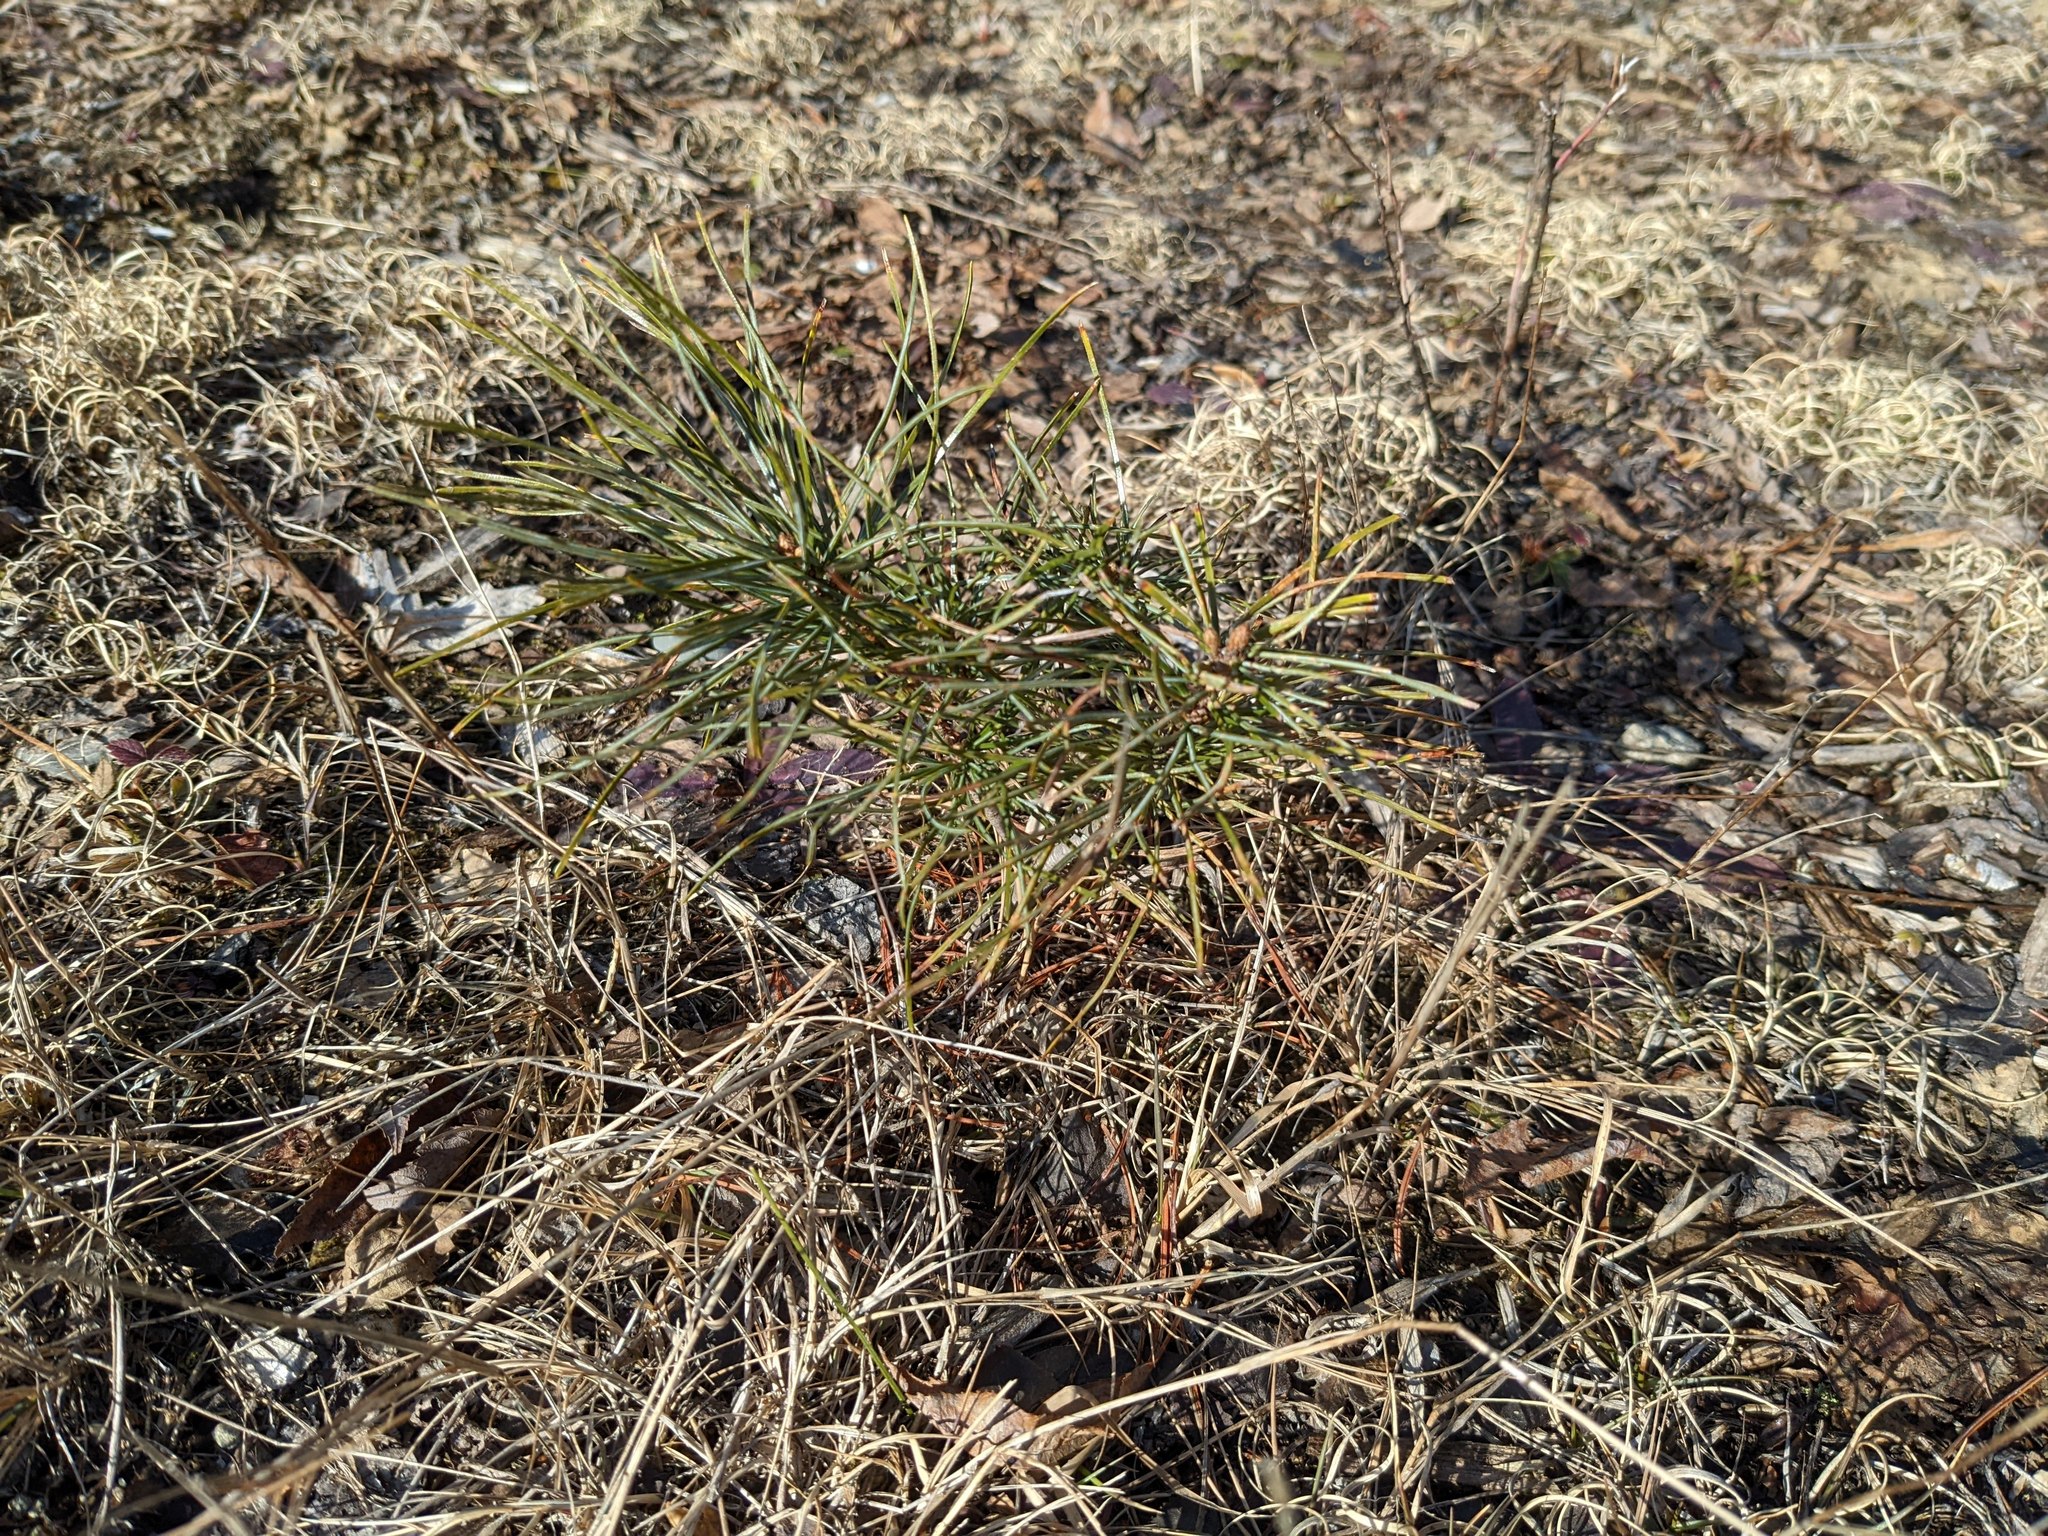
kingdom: Plantae
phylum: Tracheophyta
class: Pinopsida
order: Pinales
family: Pinaceae
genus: Pinus
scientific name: Pinus strobus
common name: Weymouth pine
